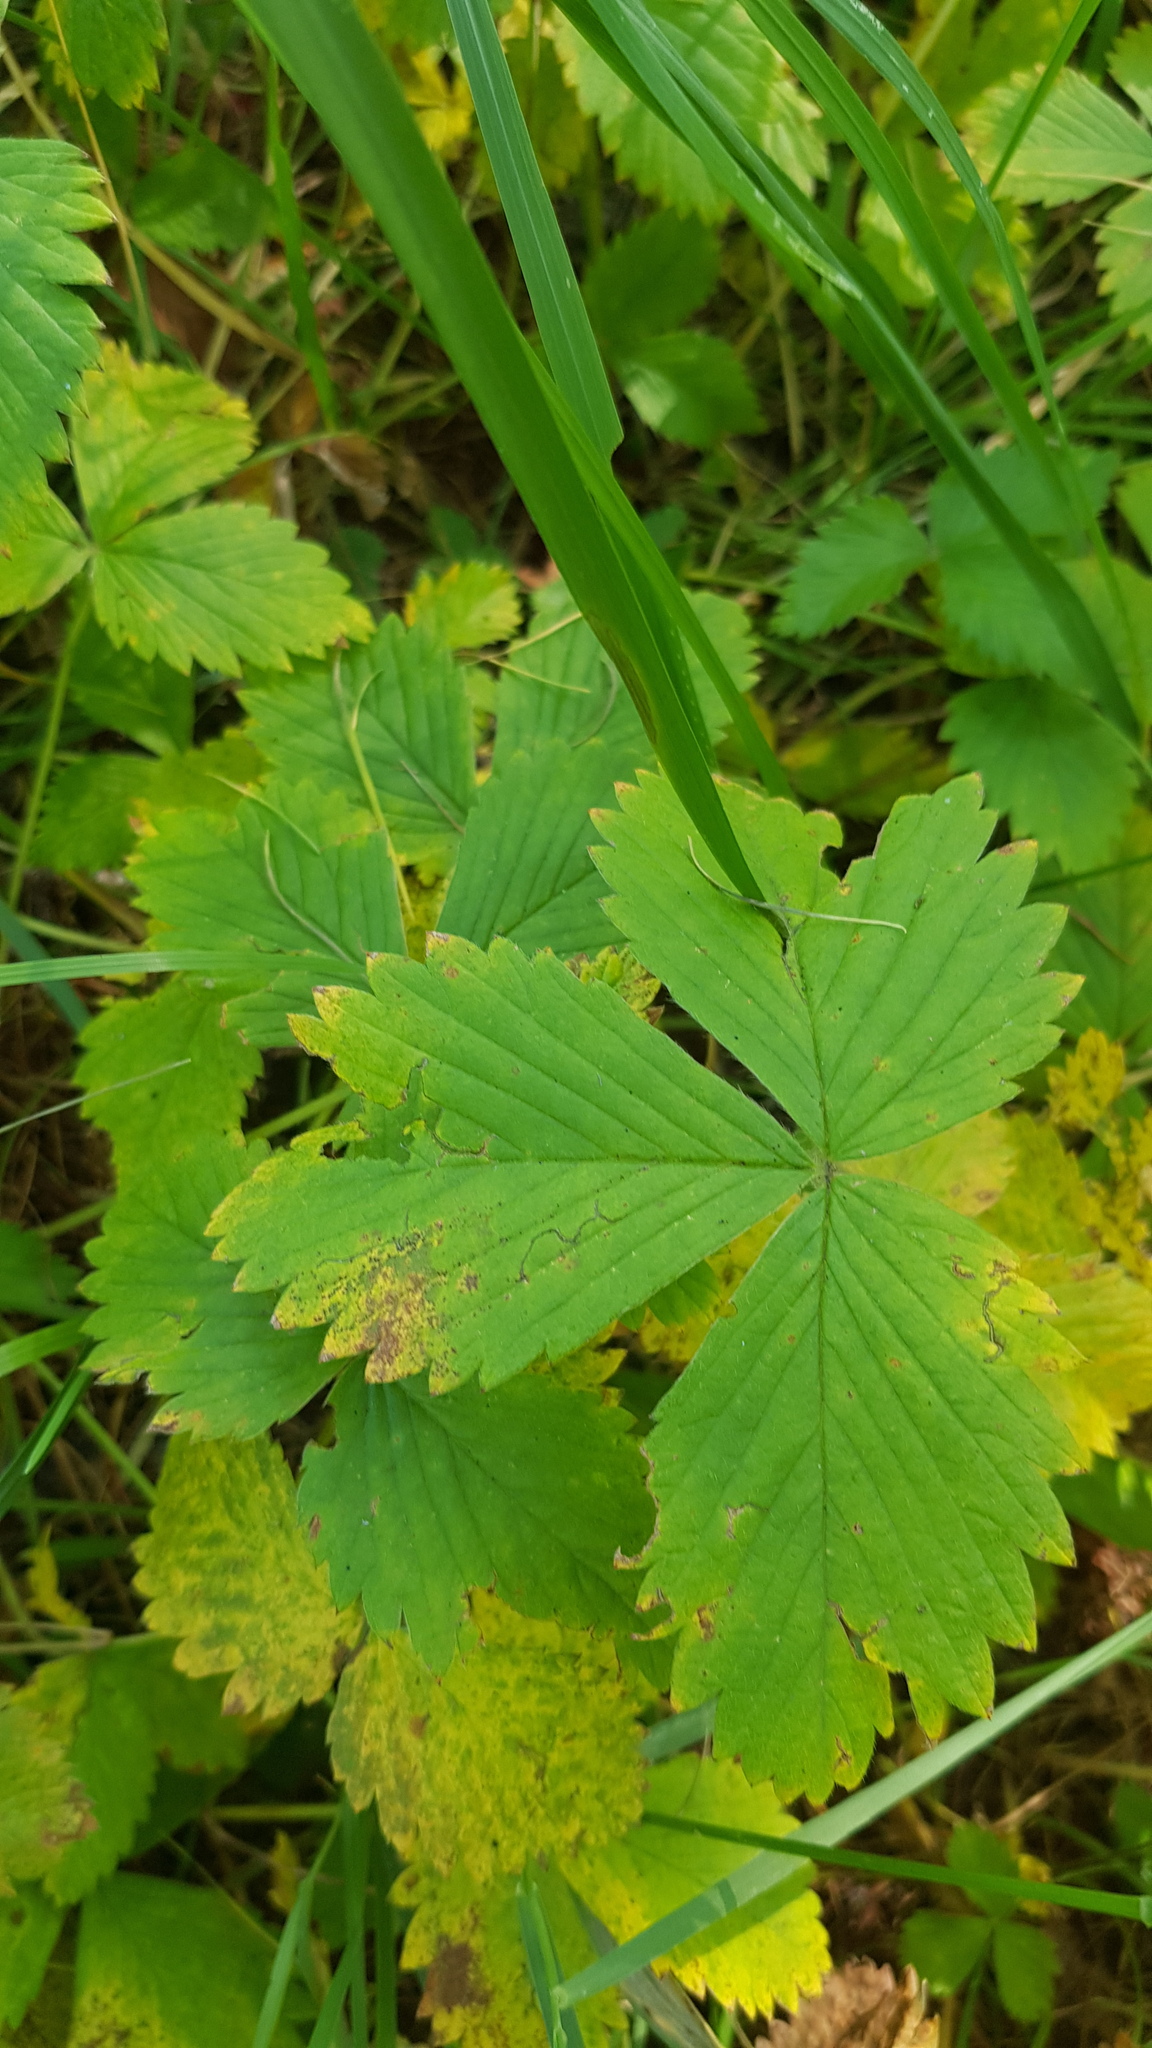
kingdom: Plantae
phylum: Tracheophyta
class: Magnoliopsida
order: Rosales
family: Rosaceae
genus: Fragaria
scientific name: Fragaria orientalis
